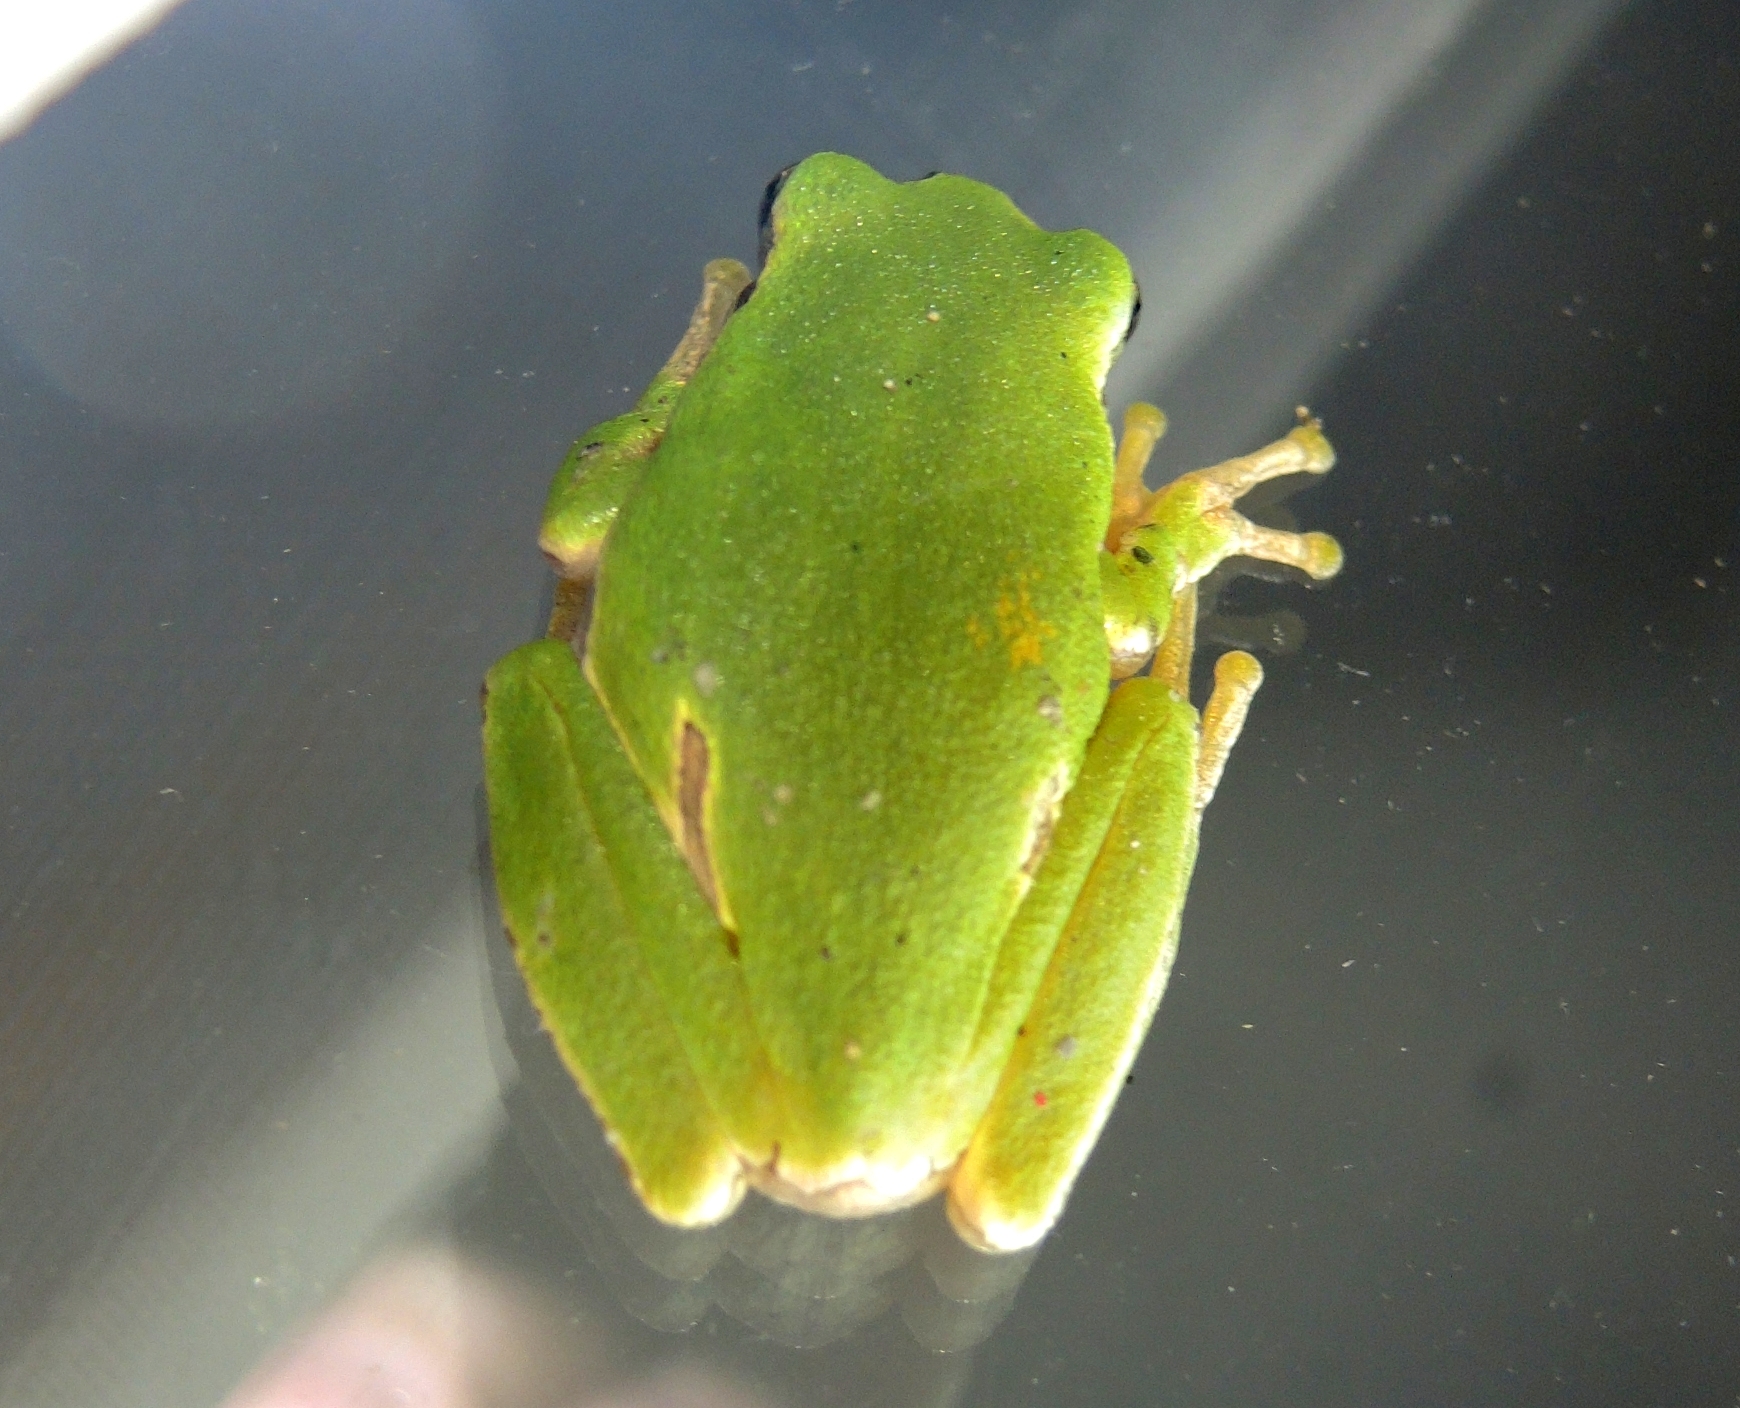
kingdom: Animalia
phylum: Chordata
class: Amphibia
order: Anura
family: Hylidae
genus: Hyla
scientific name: Hyla orientalis
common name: Caucasian treefrog
